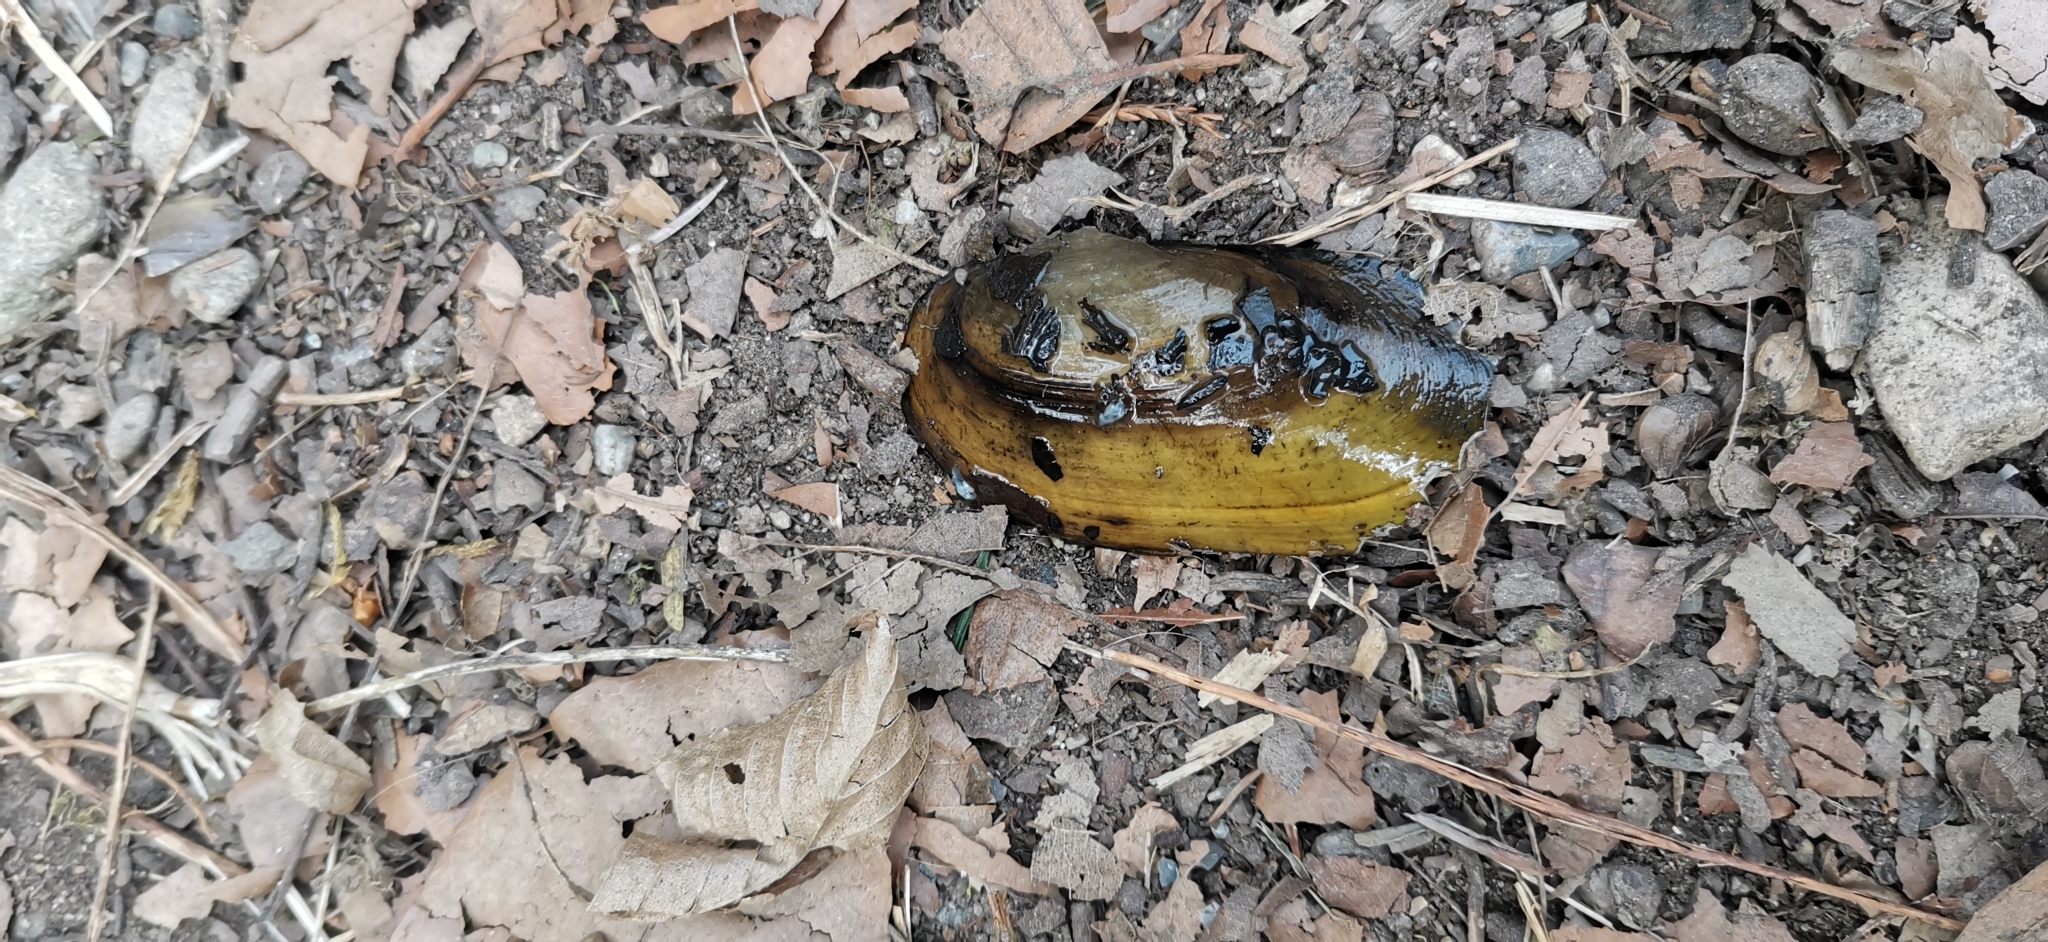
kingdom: Animalia
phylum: Mollusca
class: Bivalvia
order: Unionida
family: Unionidae
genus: Unio
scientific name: Unio elongatulus
